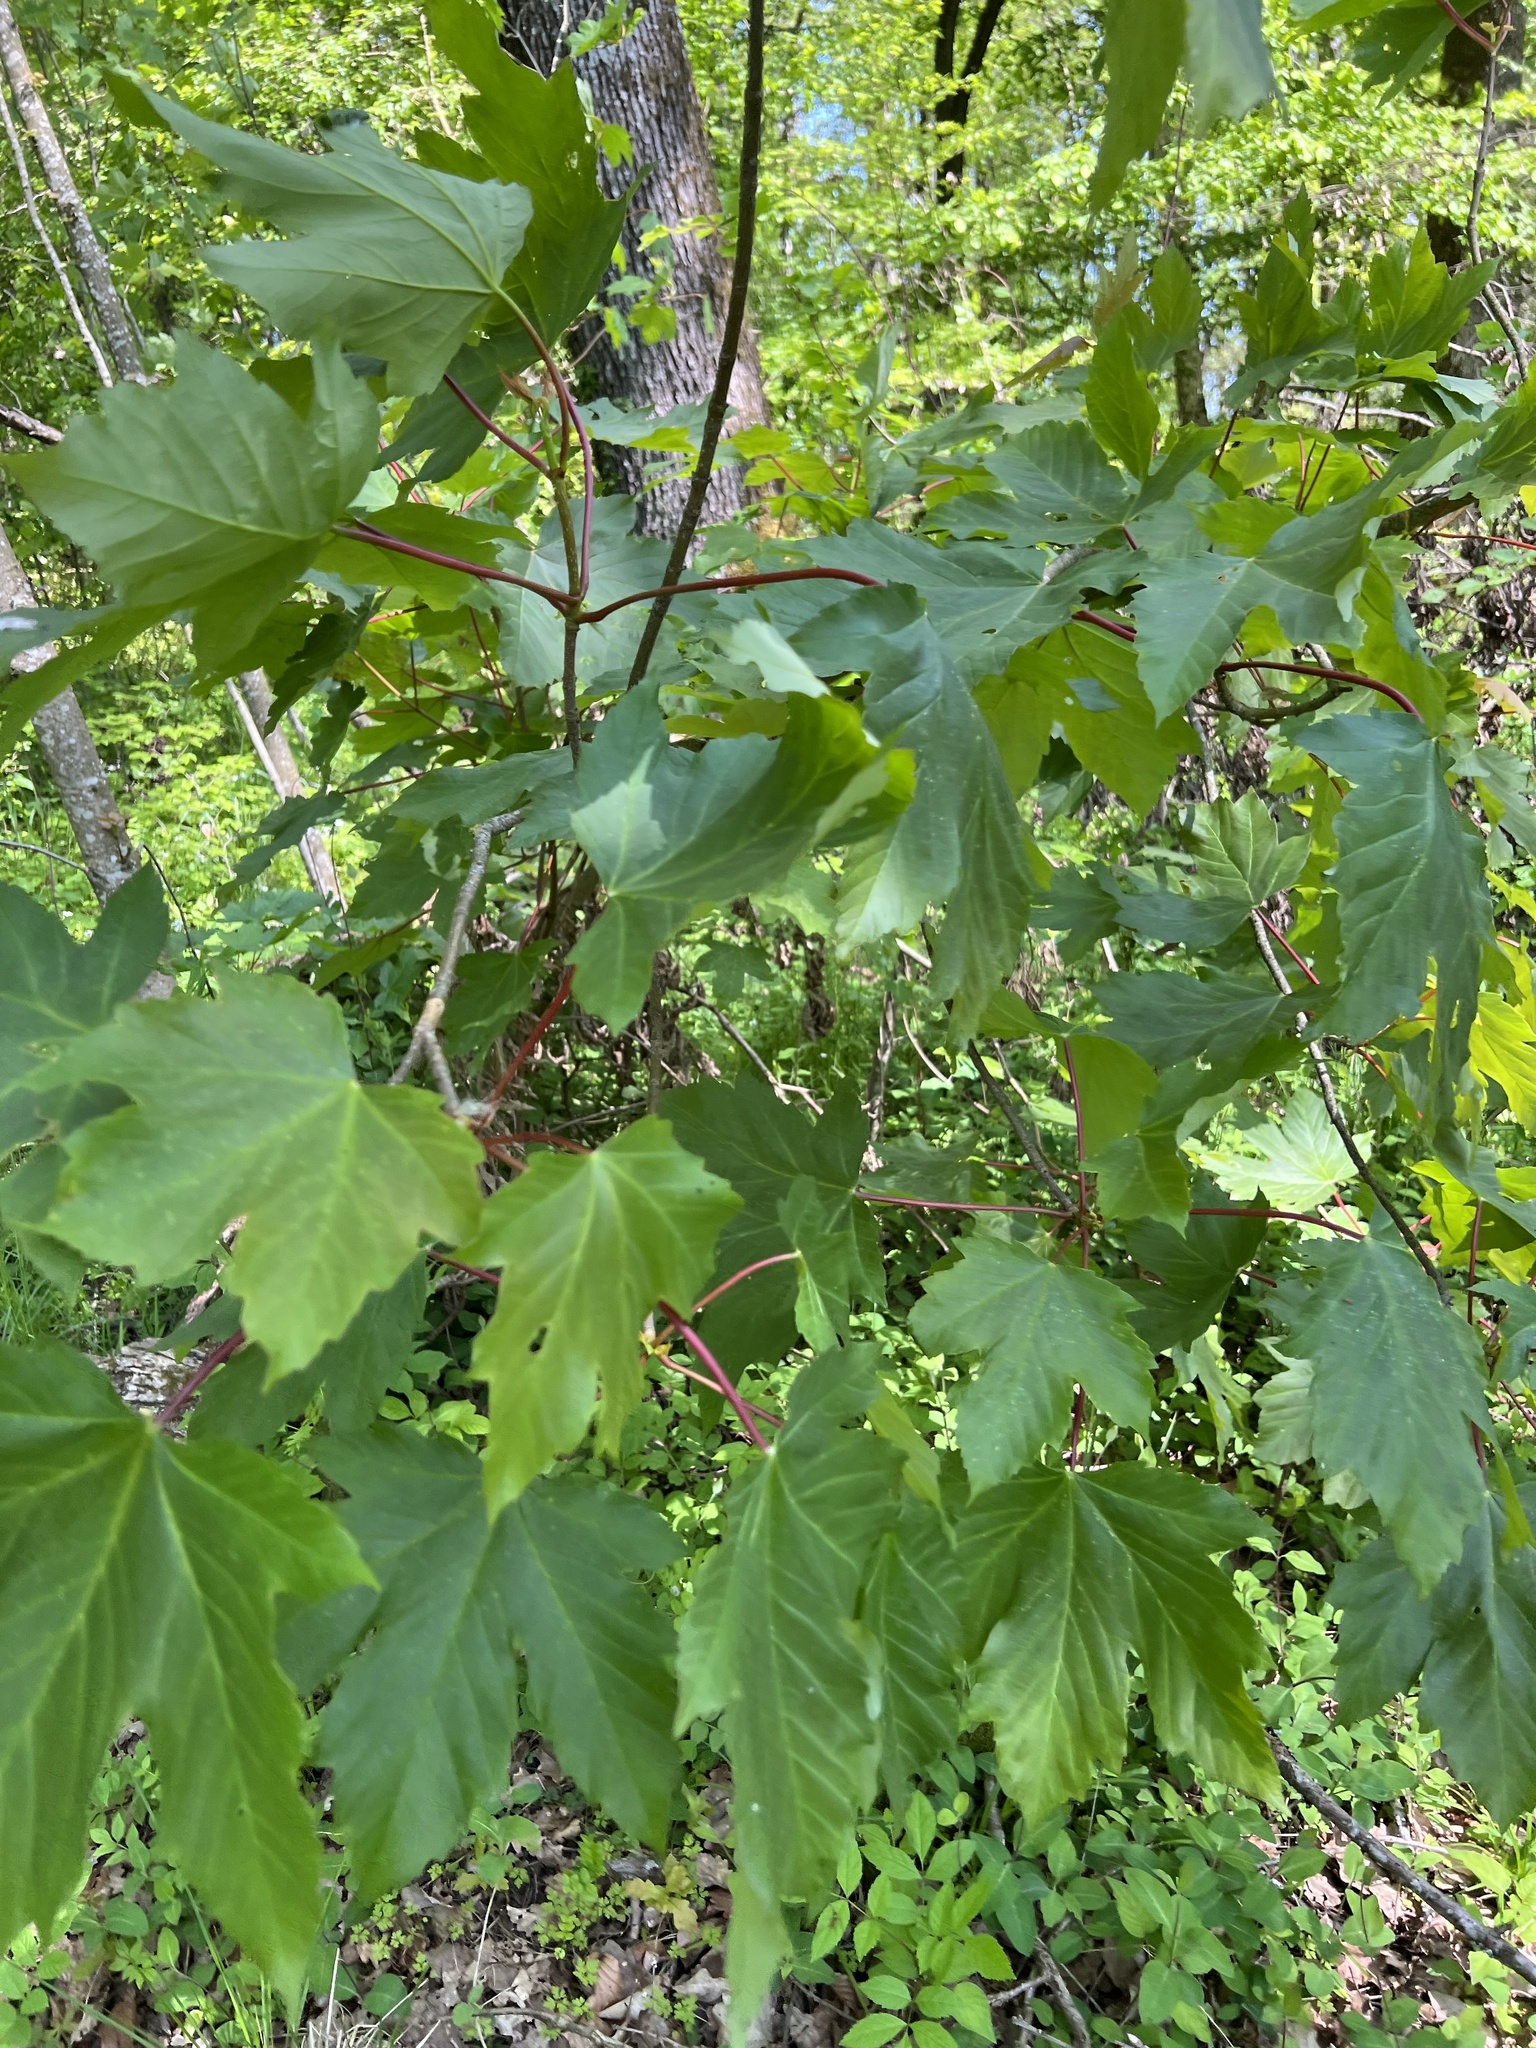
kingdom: Plantae
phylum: Tracheophyta
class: Magnoliopsida
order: Sapindales
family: Sapindaceae
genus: Acer
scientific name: Acer pseudoplatanus
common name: Sycamore
